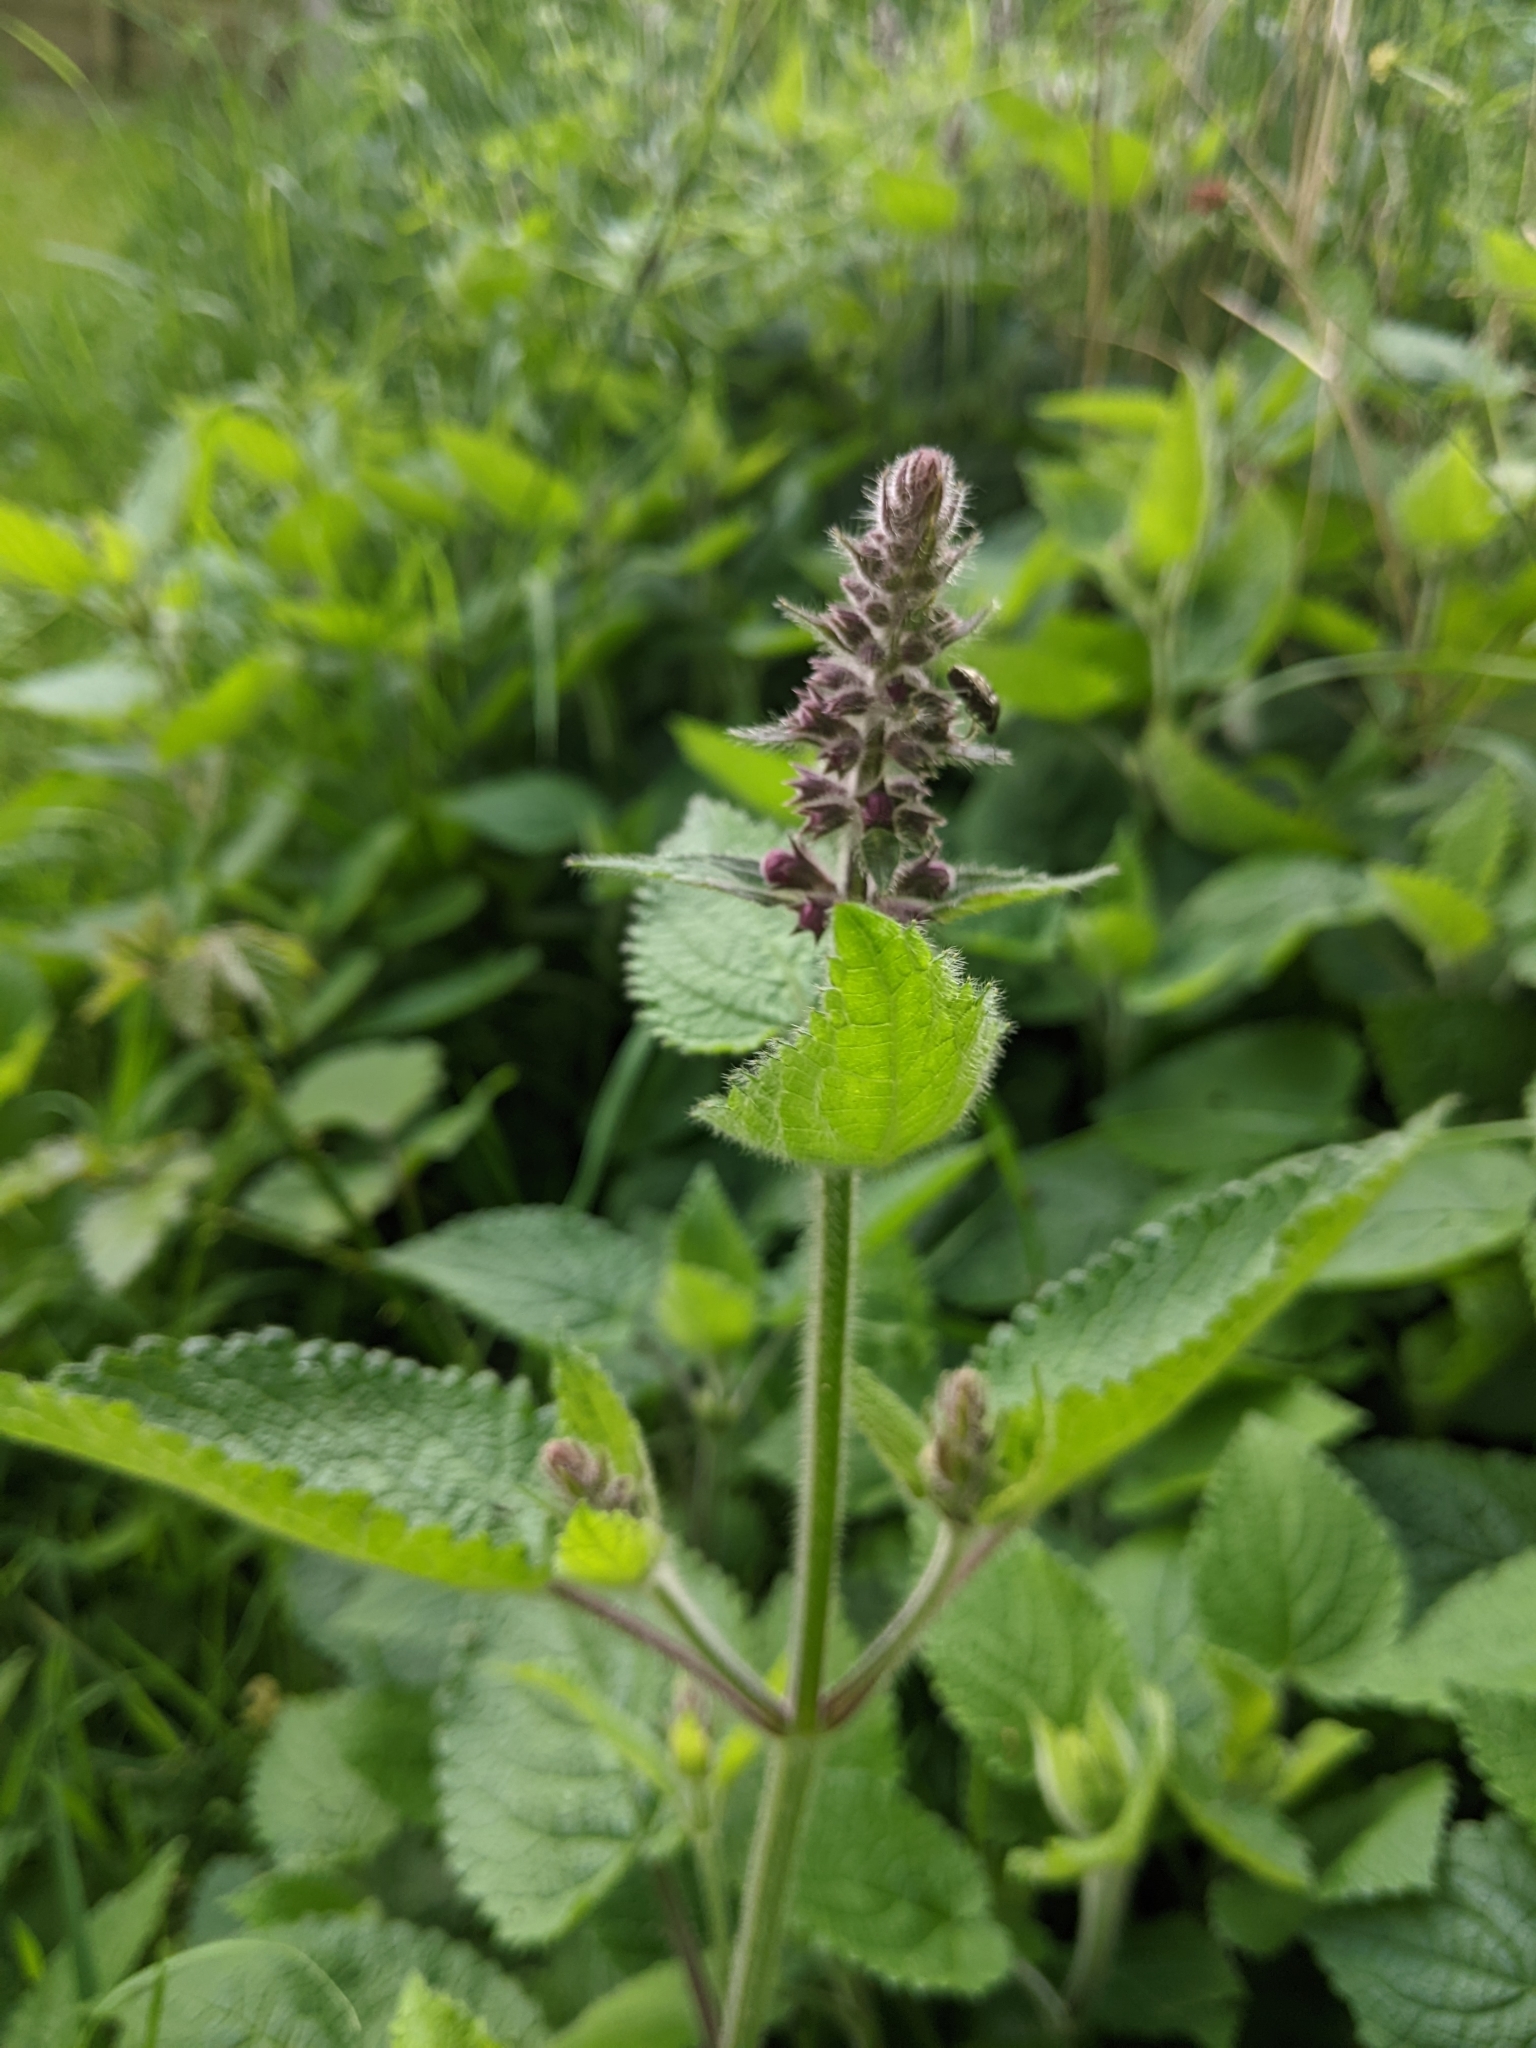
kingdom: Plantae
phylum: Tracheophyta
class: Magnoliopsida
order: Lamiales
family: Lamiaceae
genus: Stachys
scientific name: Stachys sylvatica
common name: Hedge woundwort
